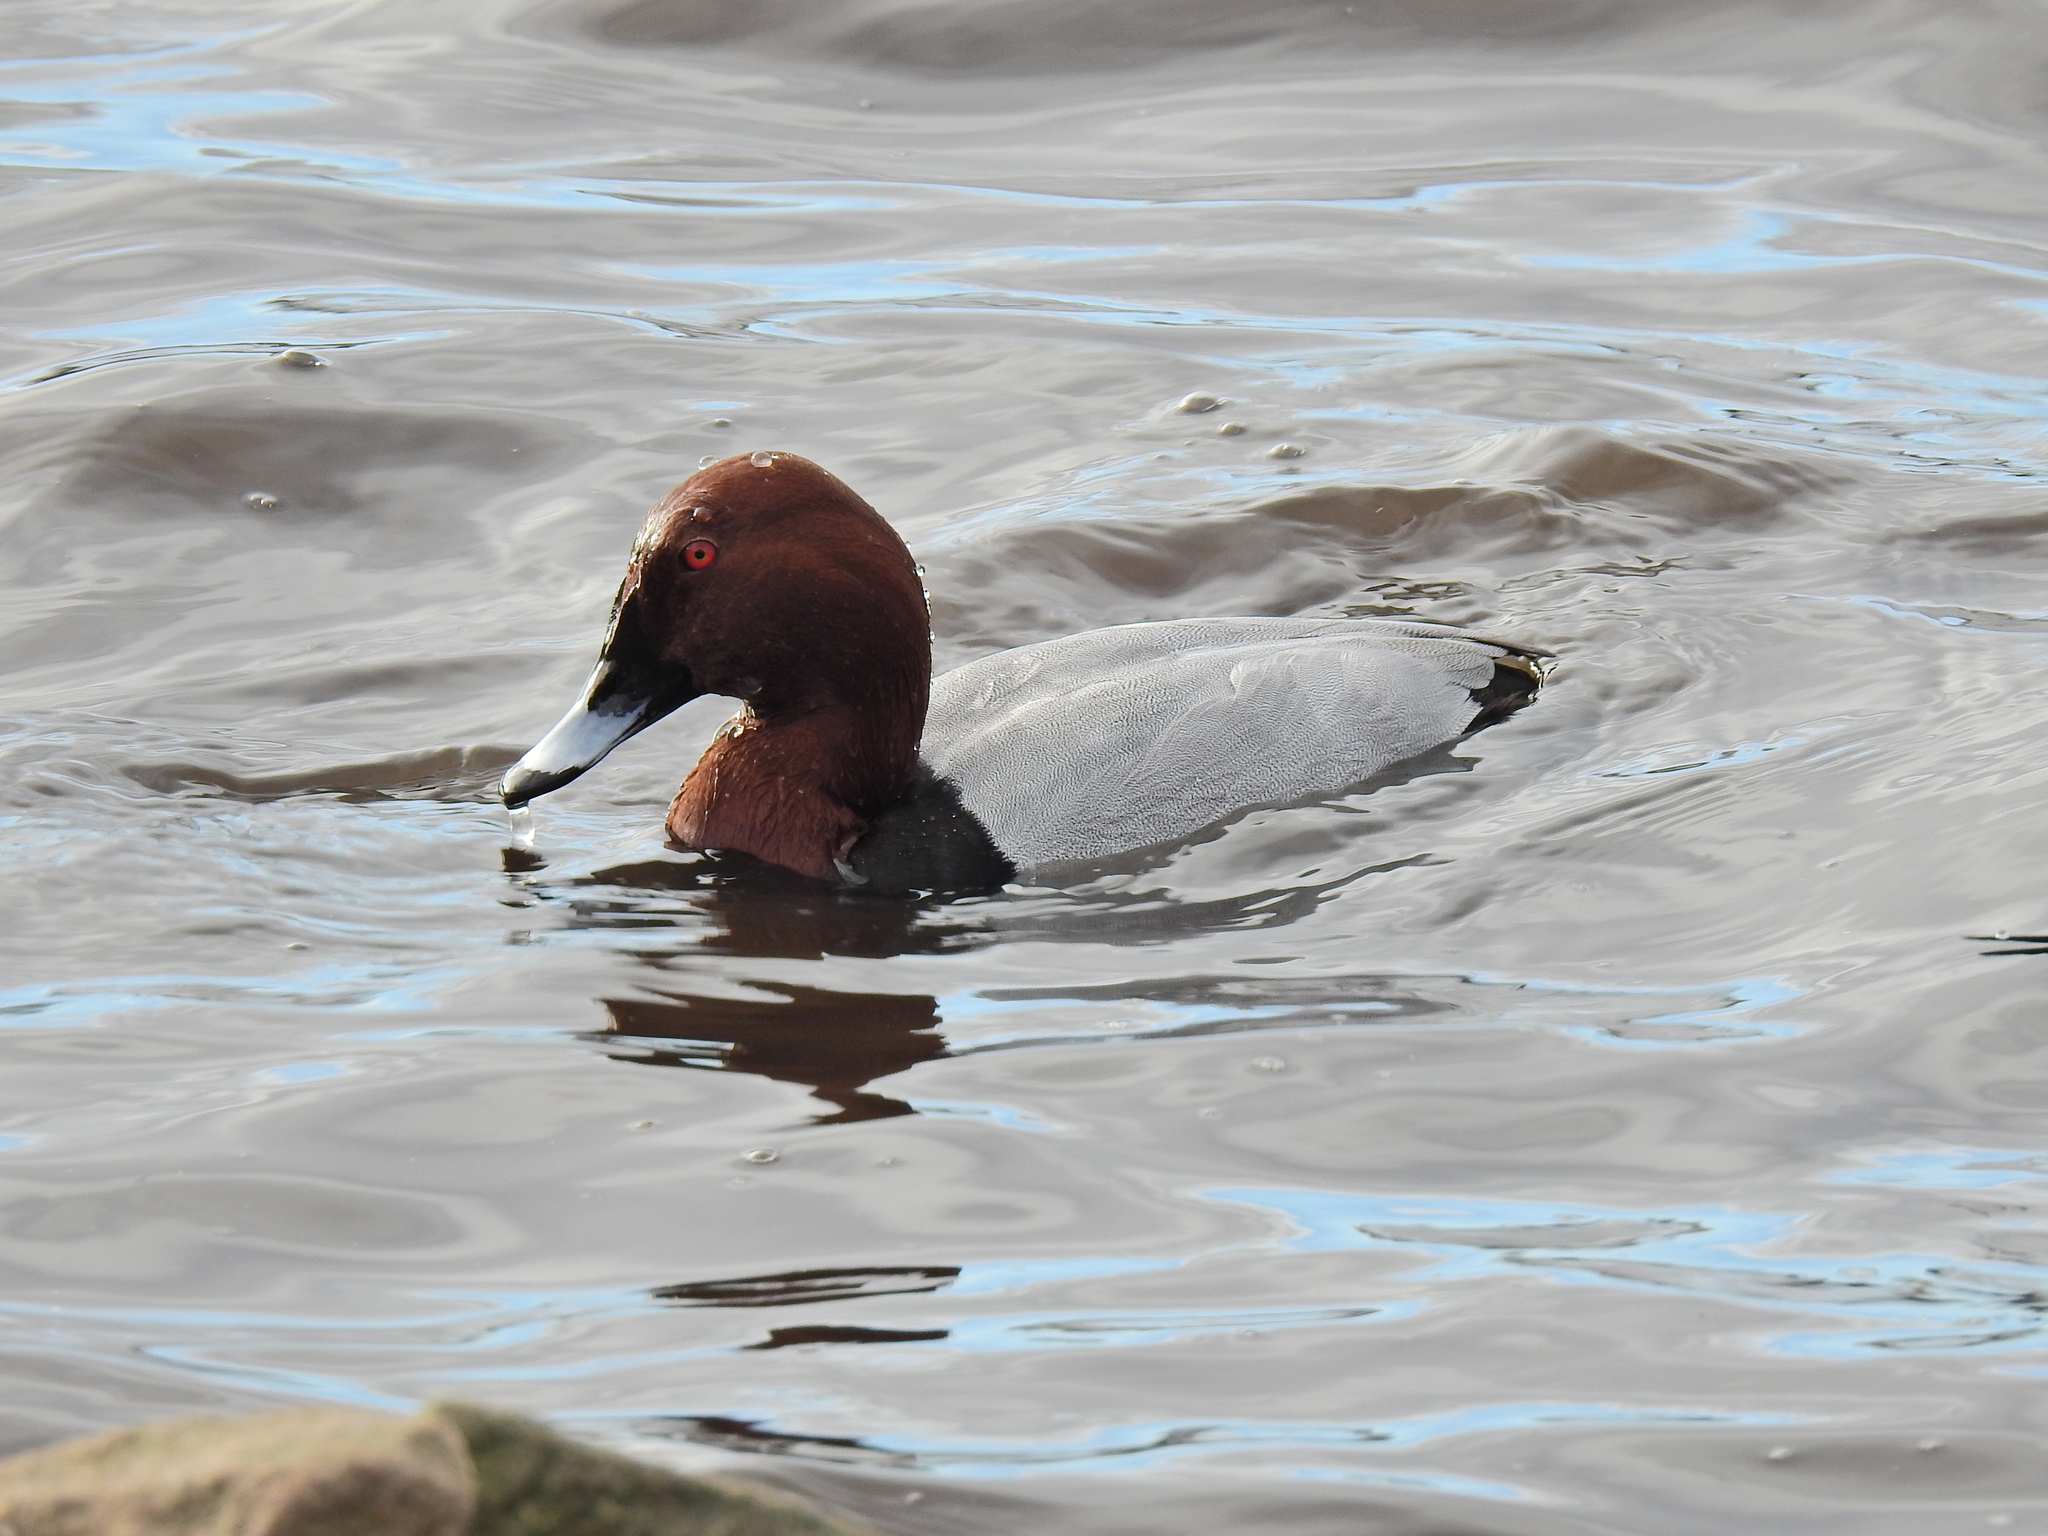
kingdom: Animalia
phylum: Chordata
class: Aves
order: Anseriformes
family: Anatidae
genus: Aythya
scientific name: Aythya ferina
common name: Common pochard
